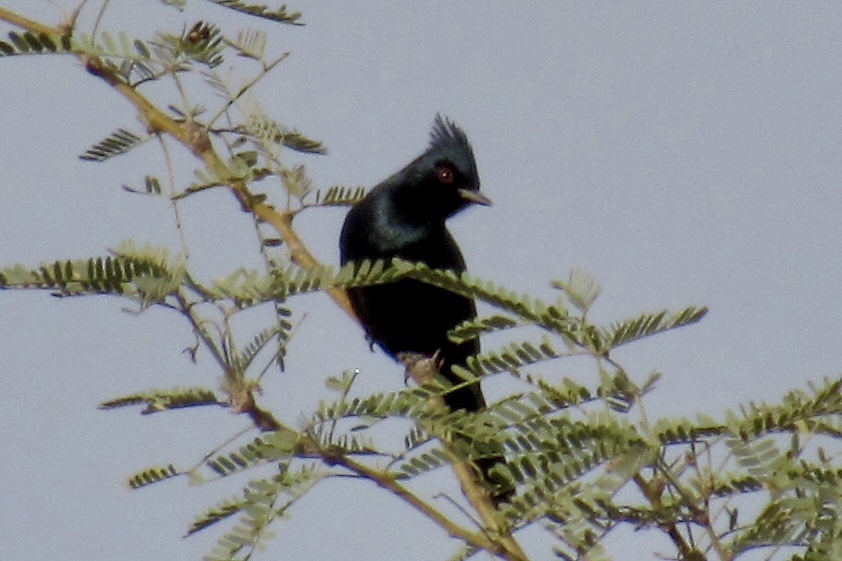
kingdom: Animalia
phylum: Chordata
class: Aves
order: Passeriformes
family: Ptilogonatidae
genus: Phainopepla
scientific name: Phainopepla nitens
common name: Phainopepla
